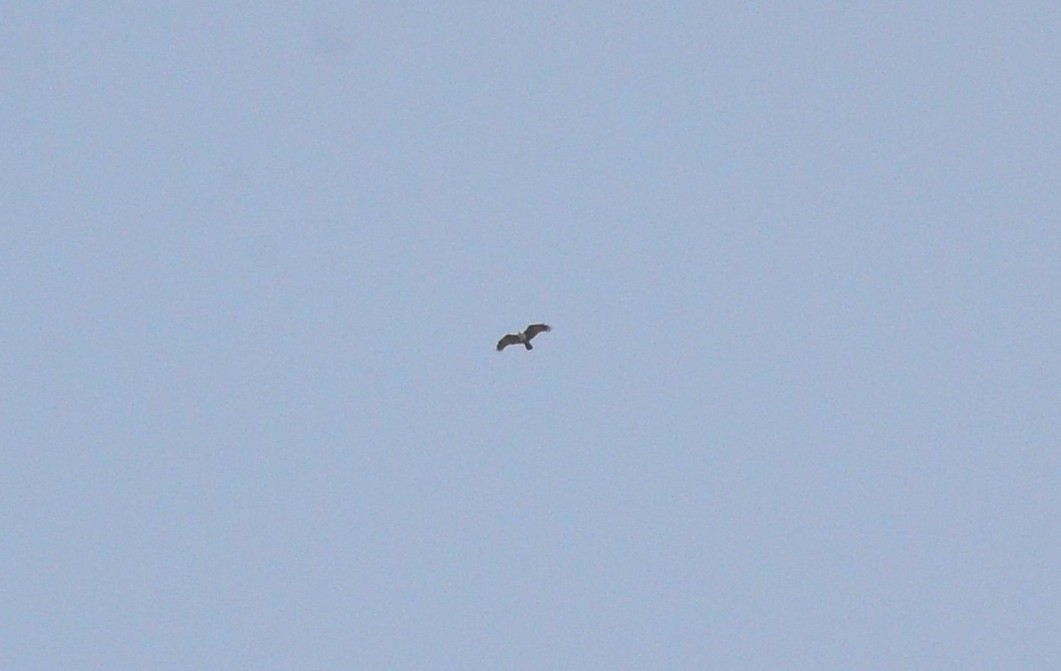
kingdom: Animalia
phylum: Chordata
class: Aves
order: Accipitriformes
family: Accipitridae
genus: Haliastur
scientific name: Haliastur indus
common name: Brahminy kite
